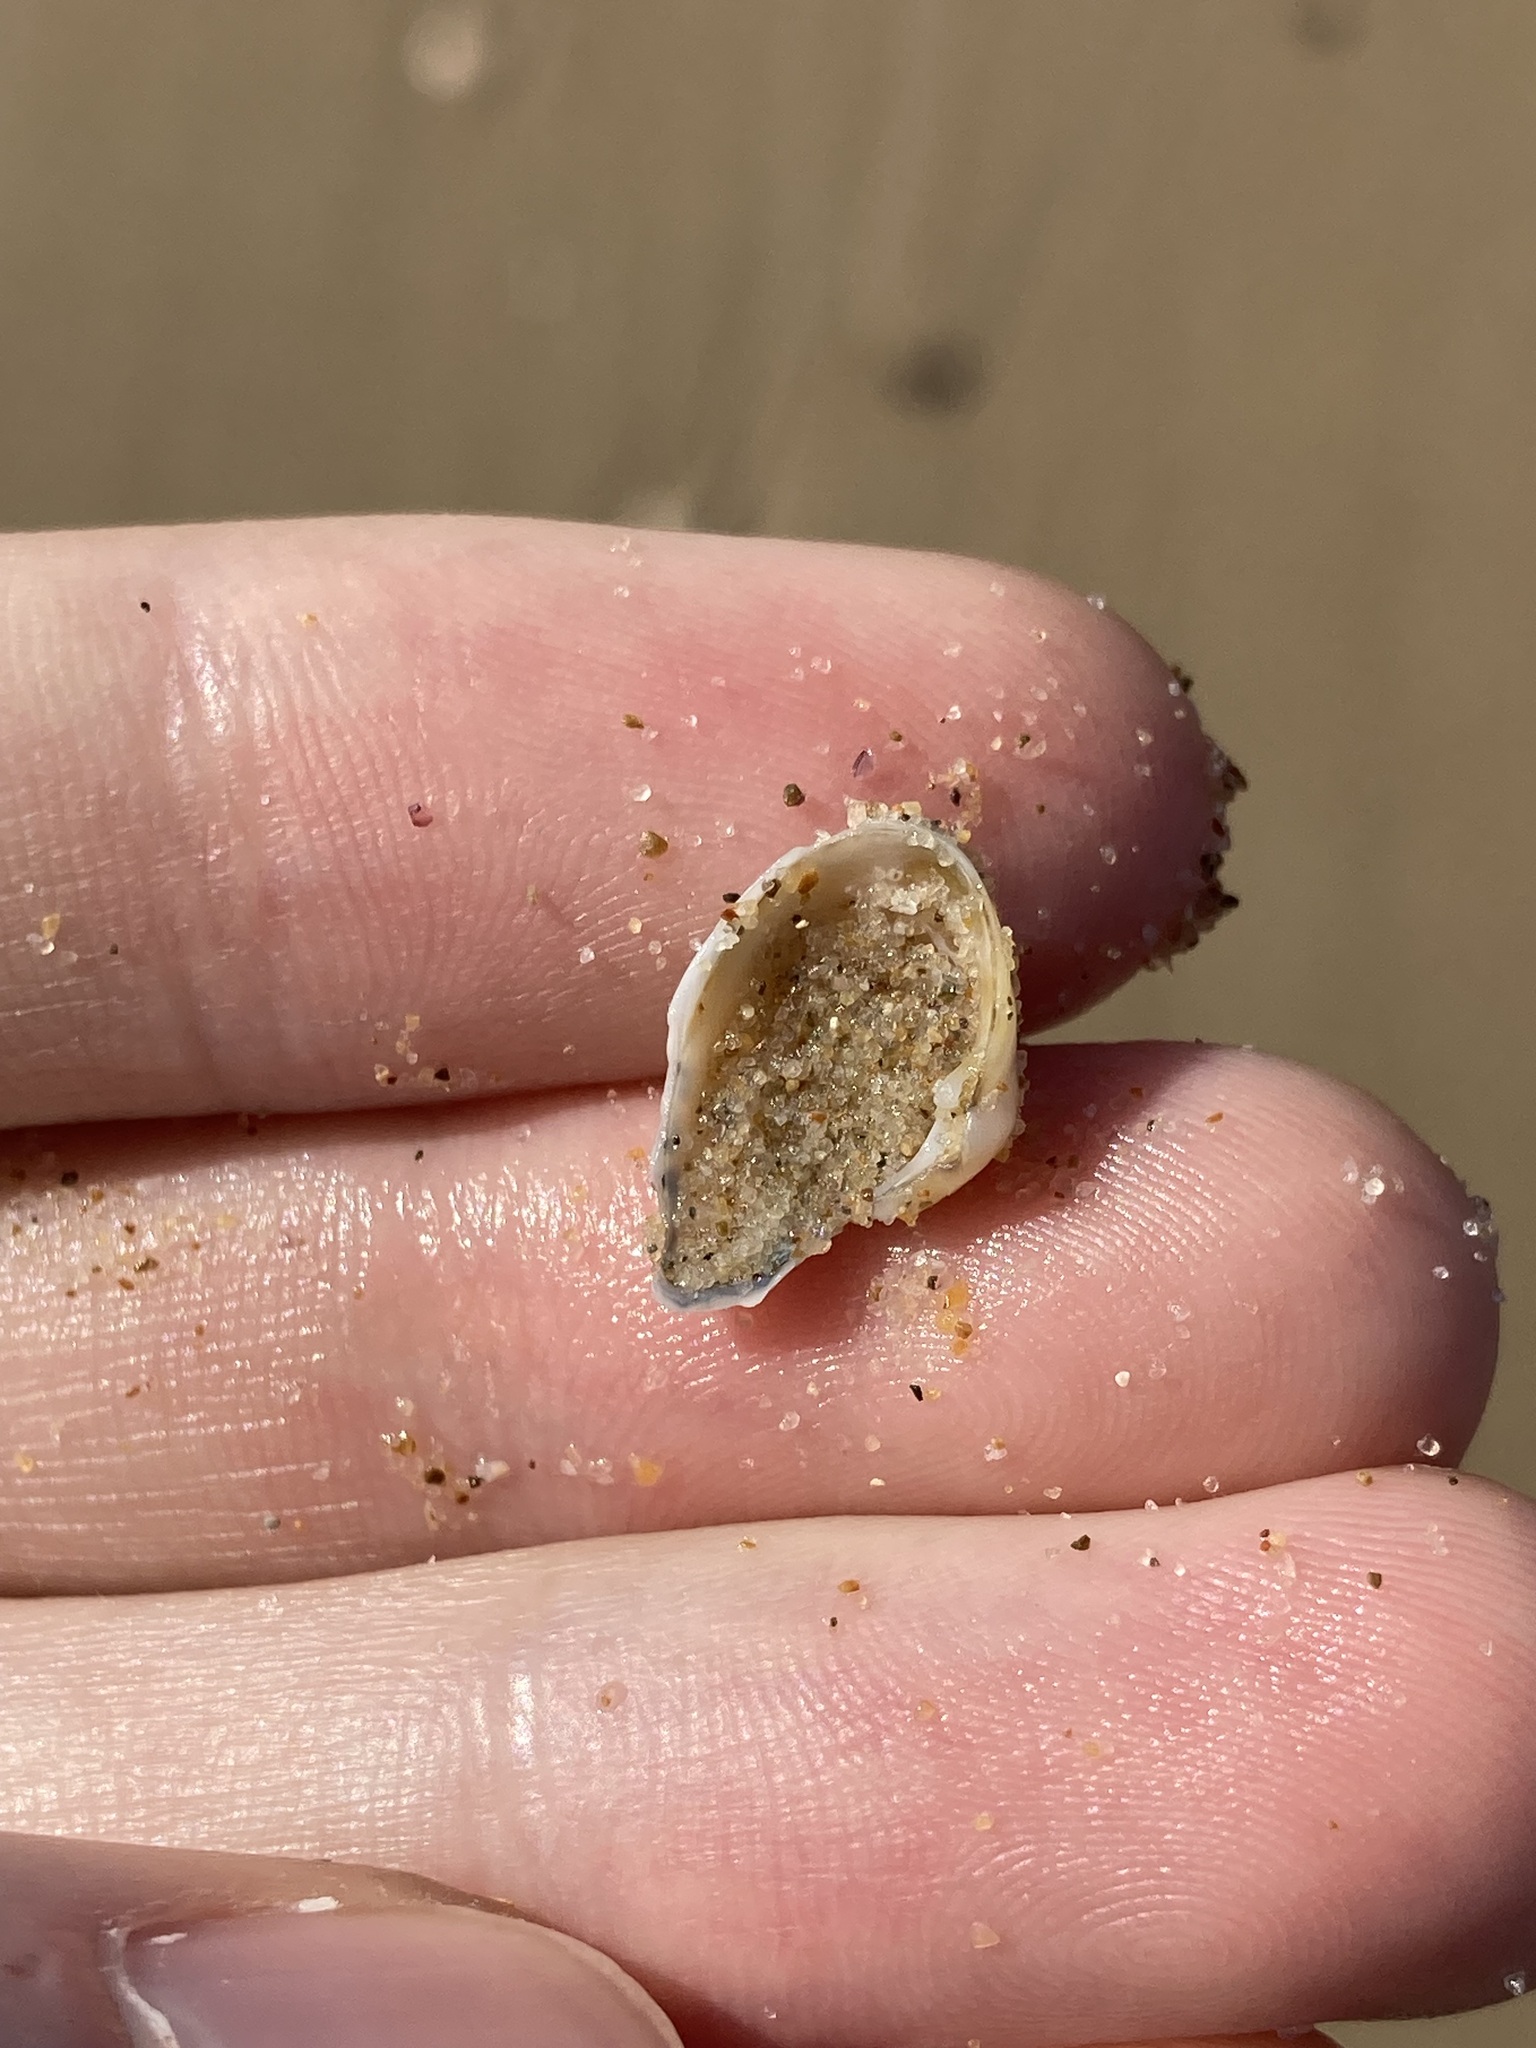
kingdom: Animalia
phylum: Mollusca
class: Bivalvia
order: Myida
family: Corbulidae
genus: Corbula
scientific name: Corbula smithiana
